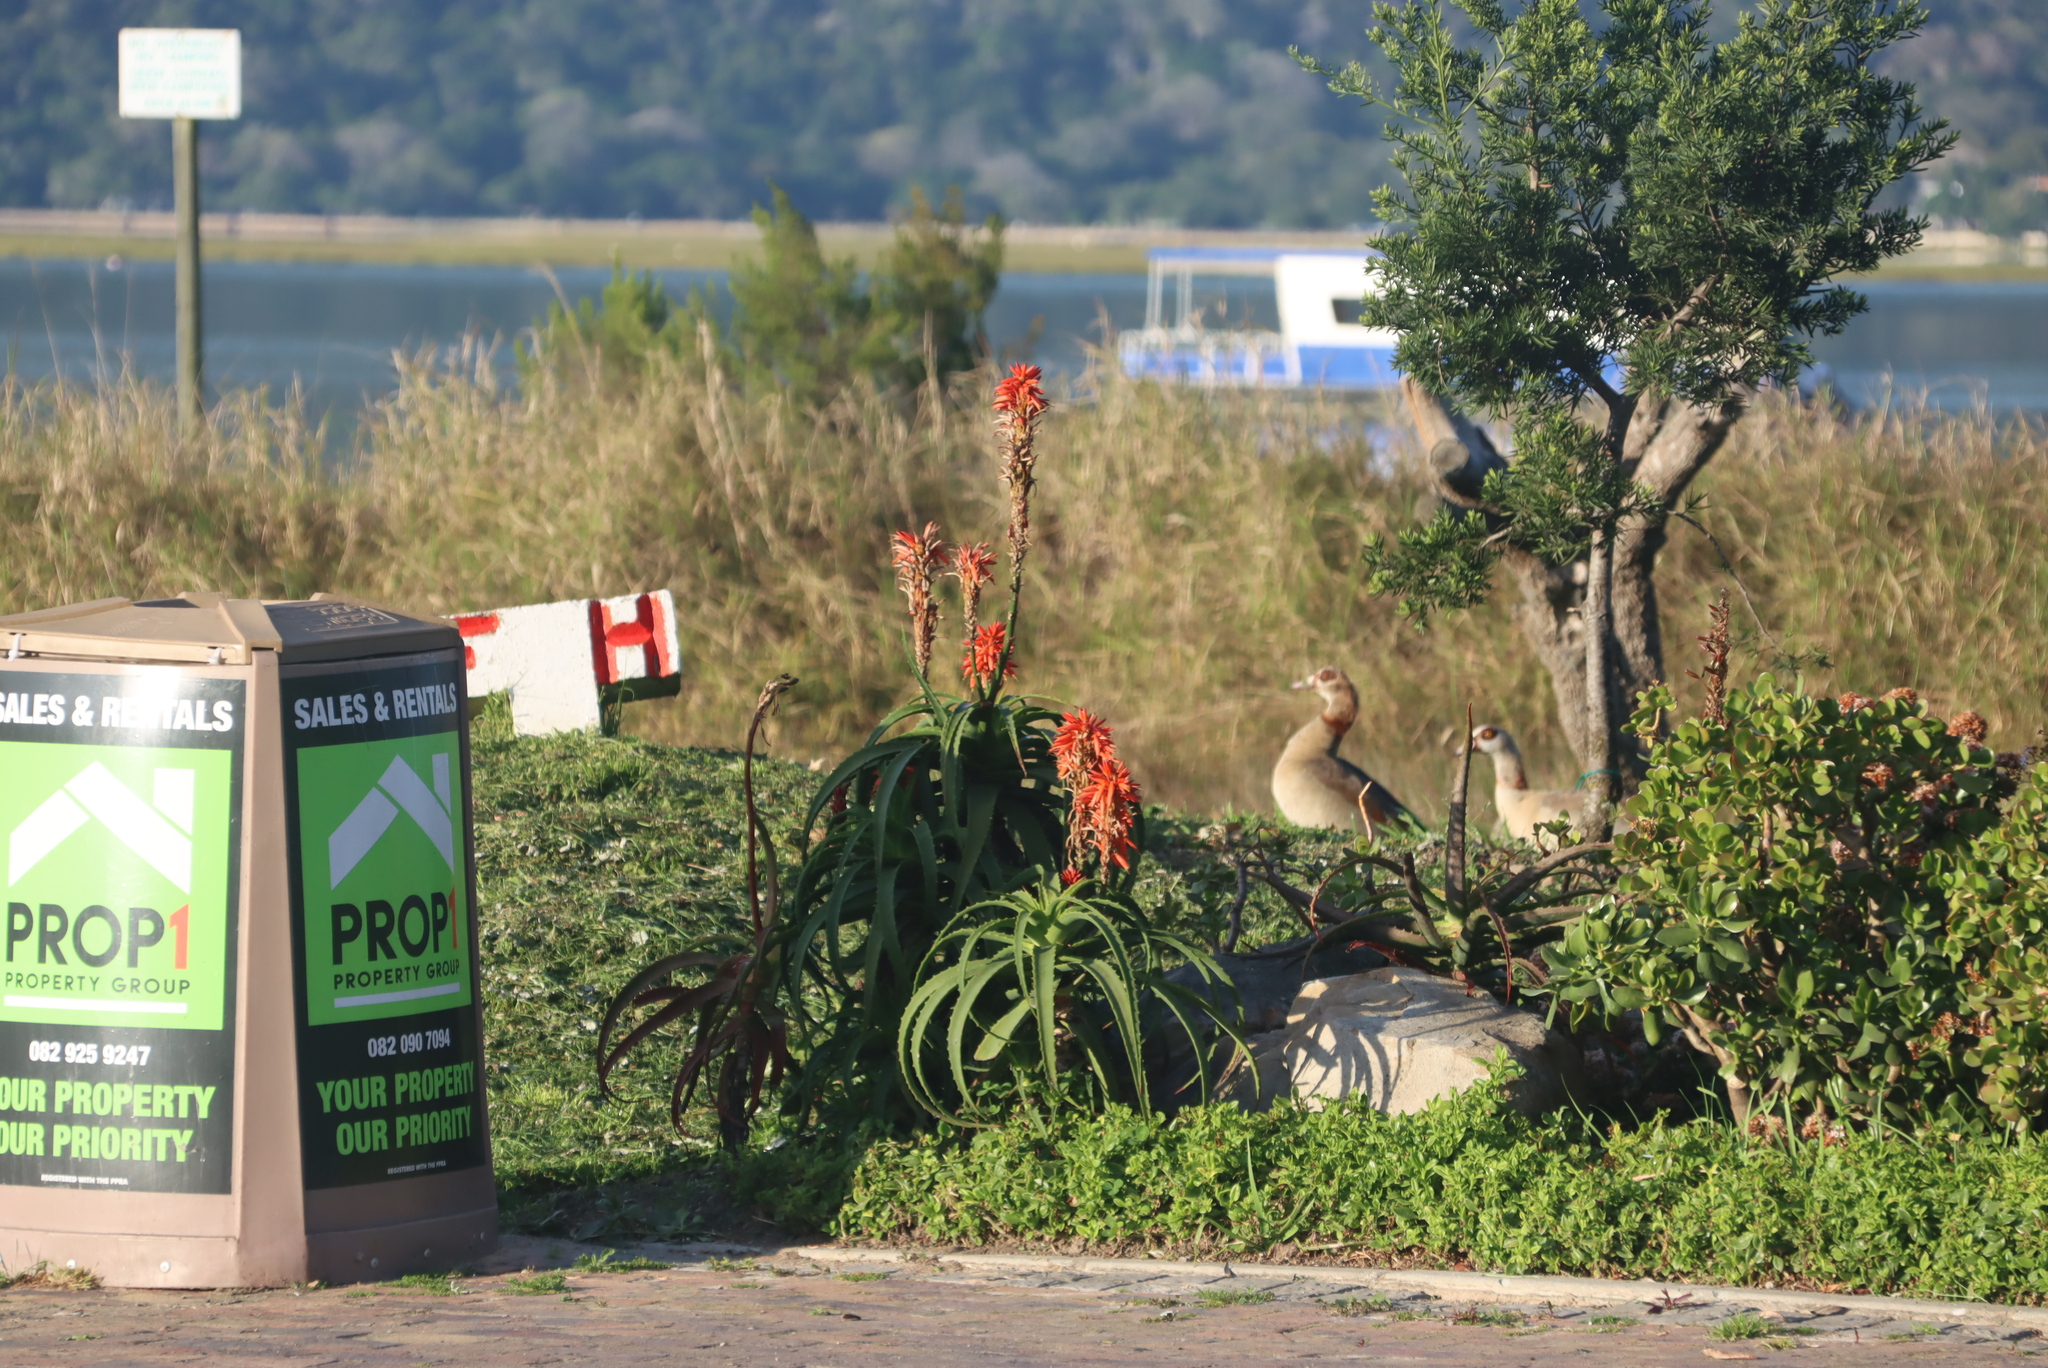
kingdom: Plantae
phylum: Tracheophyta
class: Liliopsida
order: Asparagales
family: Asphodelaceae
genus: Aloe
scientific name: Aloe arborescens
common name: Candelabra aloe
